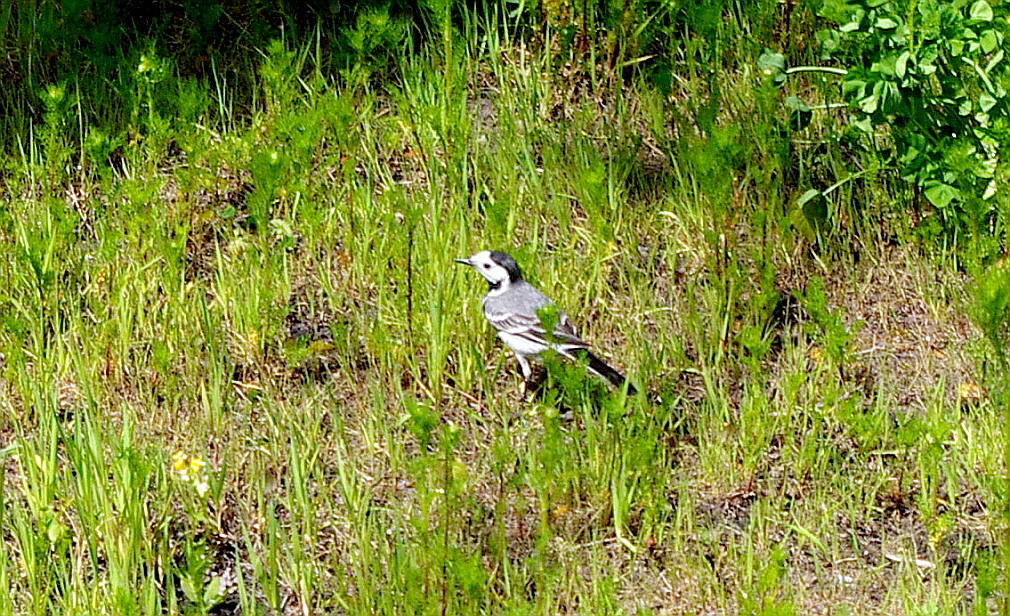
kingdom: Animalia
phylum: Chordata
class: Aves
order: Passeriformes
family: Motacillidae
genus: Motacilla
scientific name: Motacilla alba
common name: White wagtail
